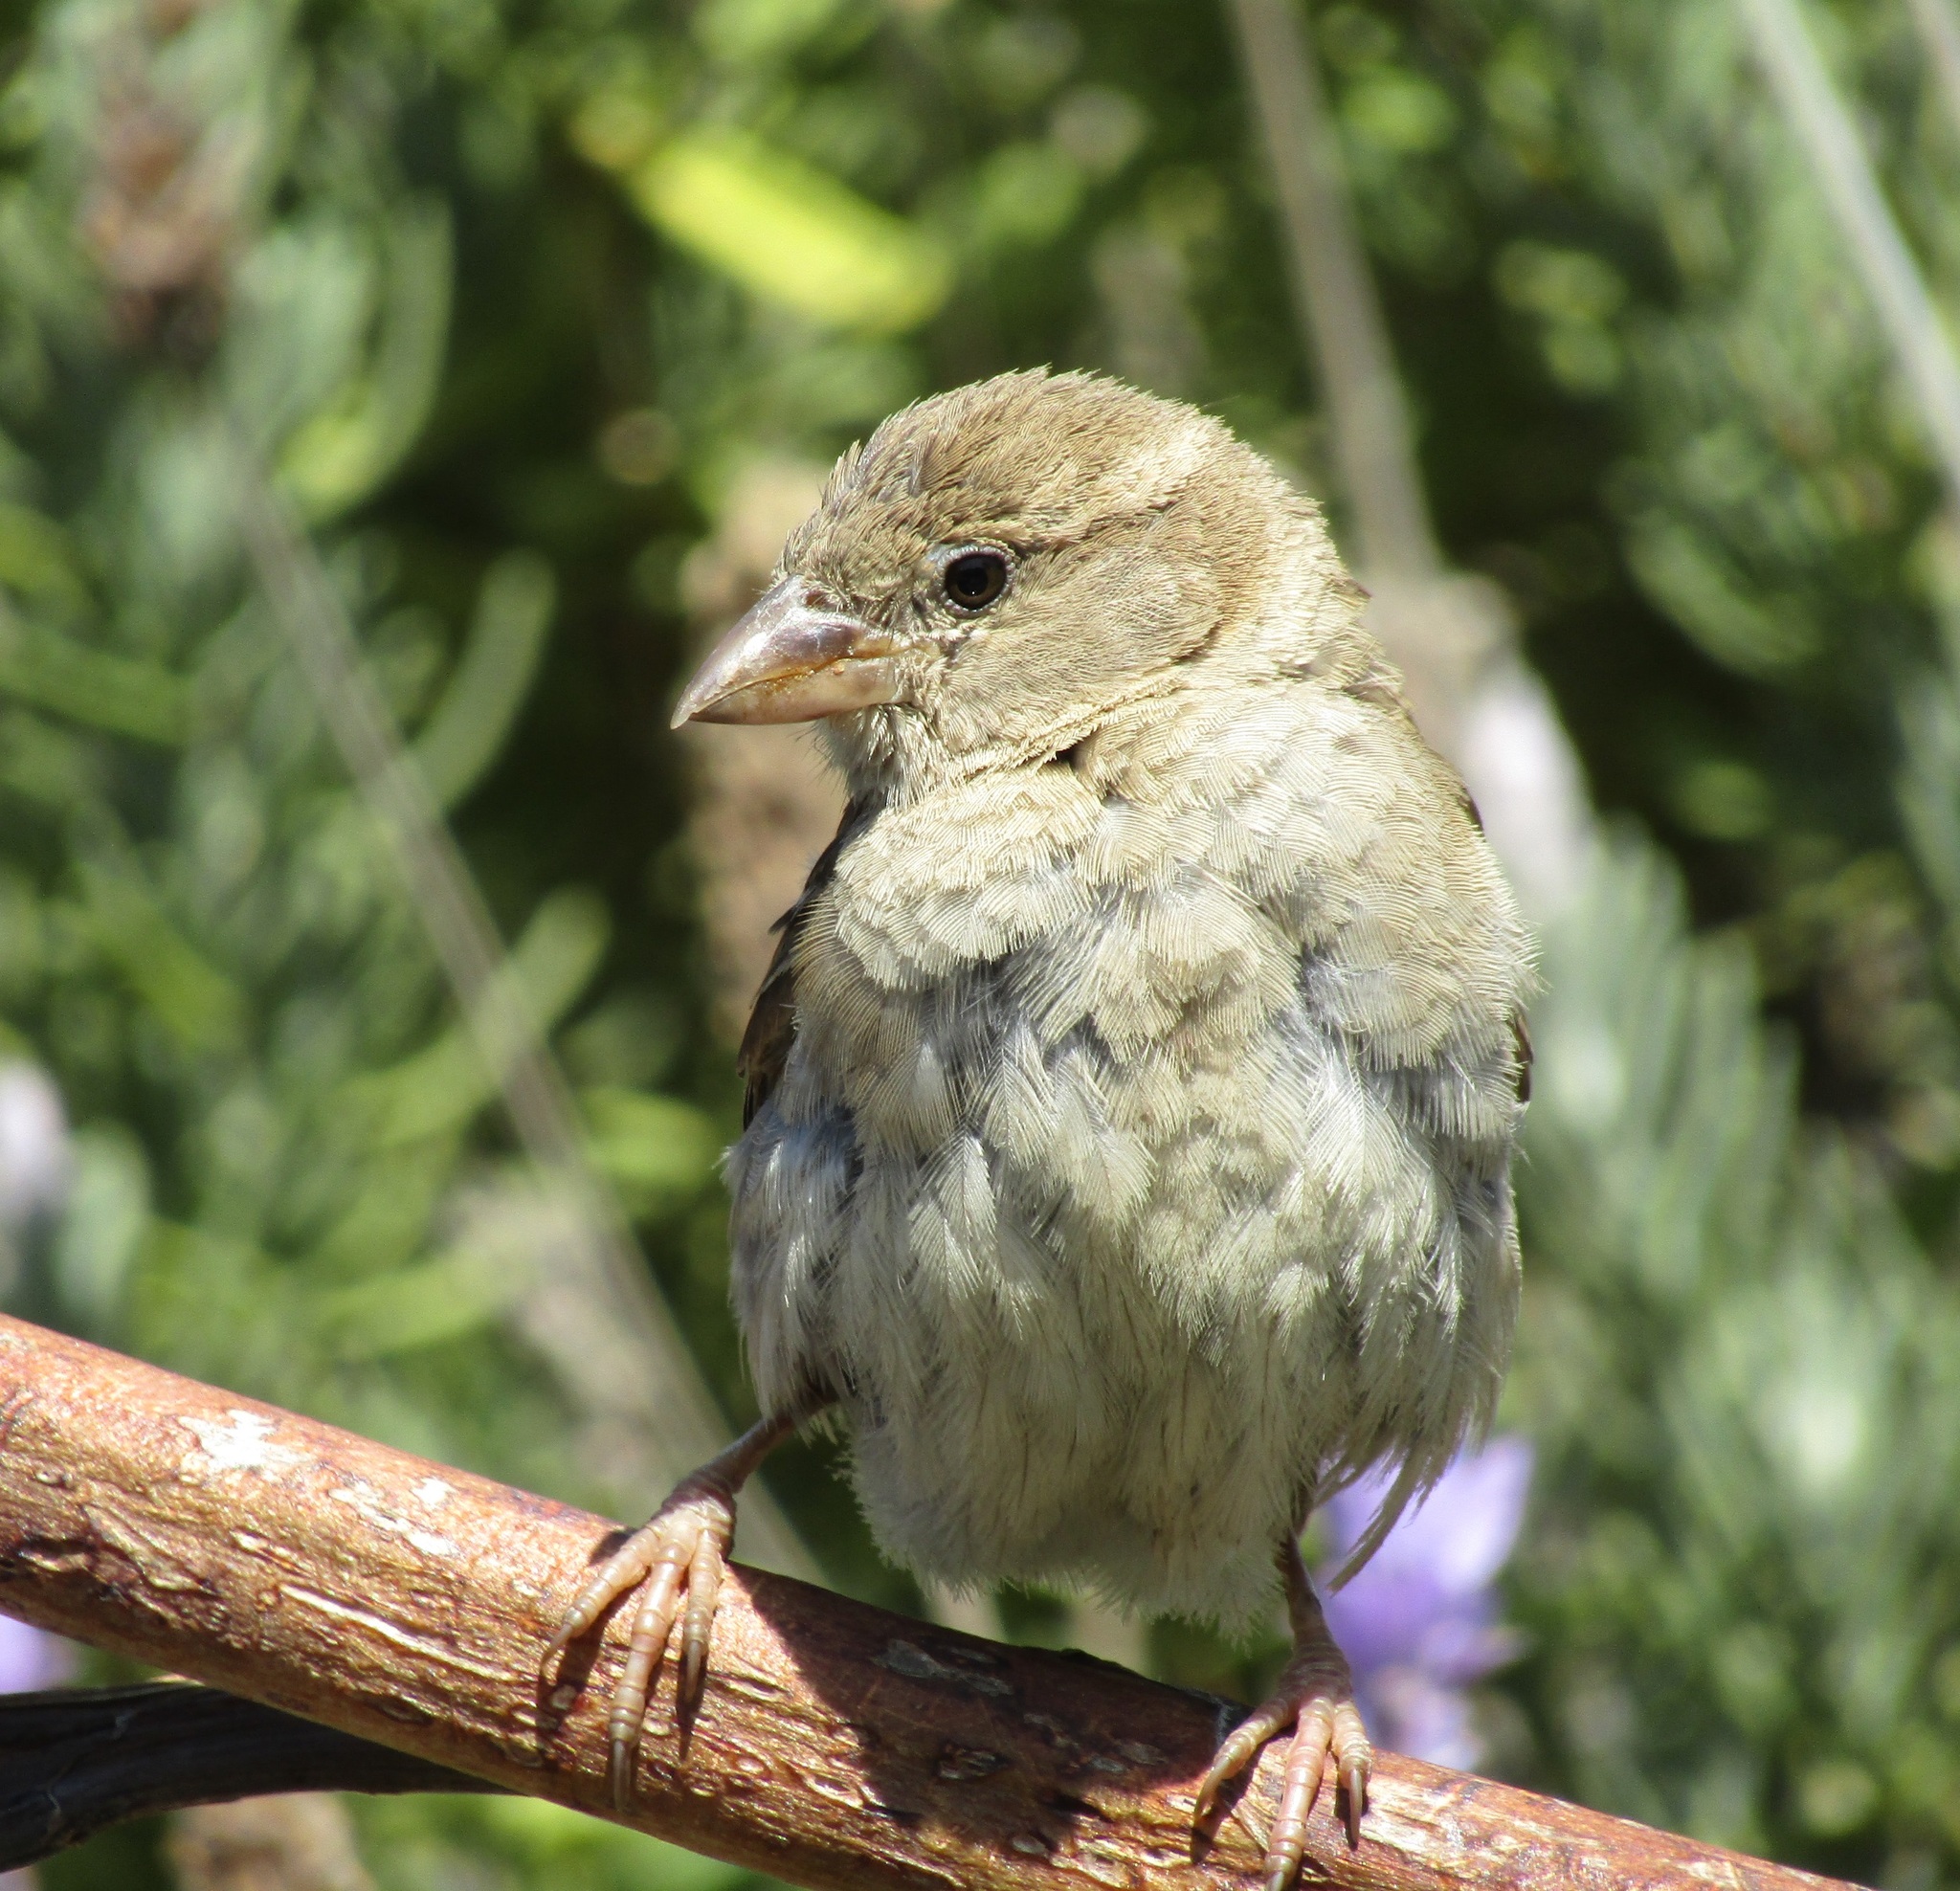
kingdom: Animalia
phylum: Chordata
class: Aves
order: Passeriformes
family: Passeridae
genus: Passer
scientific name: Passer domesticus
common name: House sparrow
